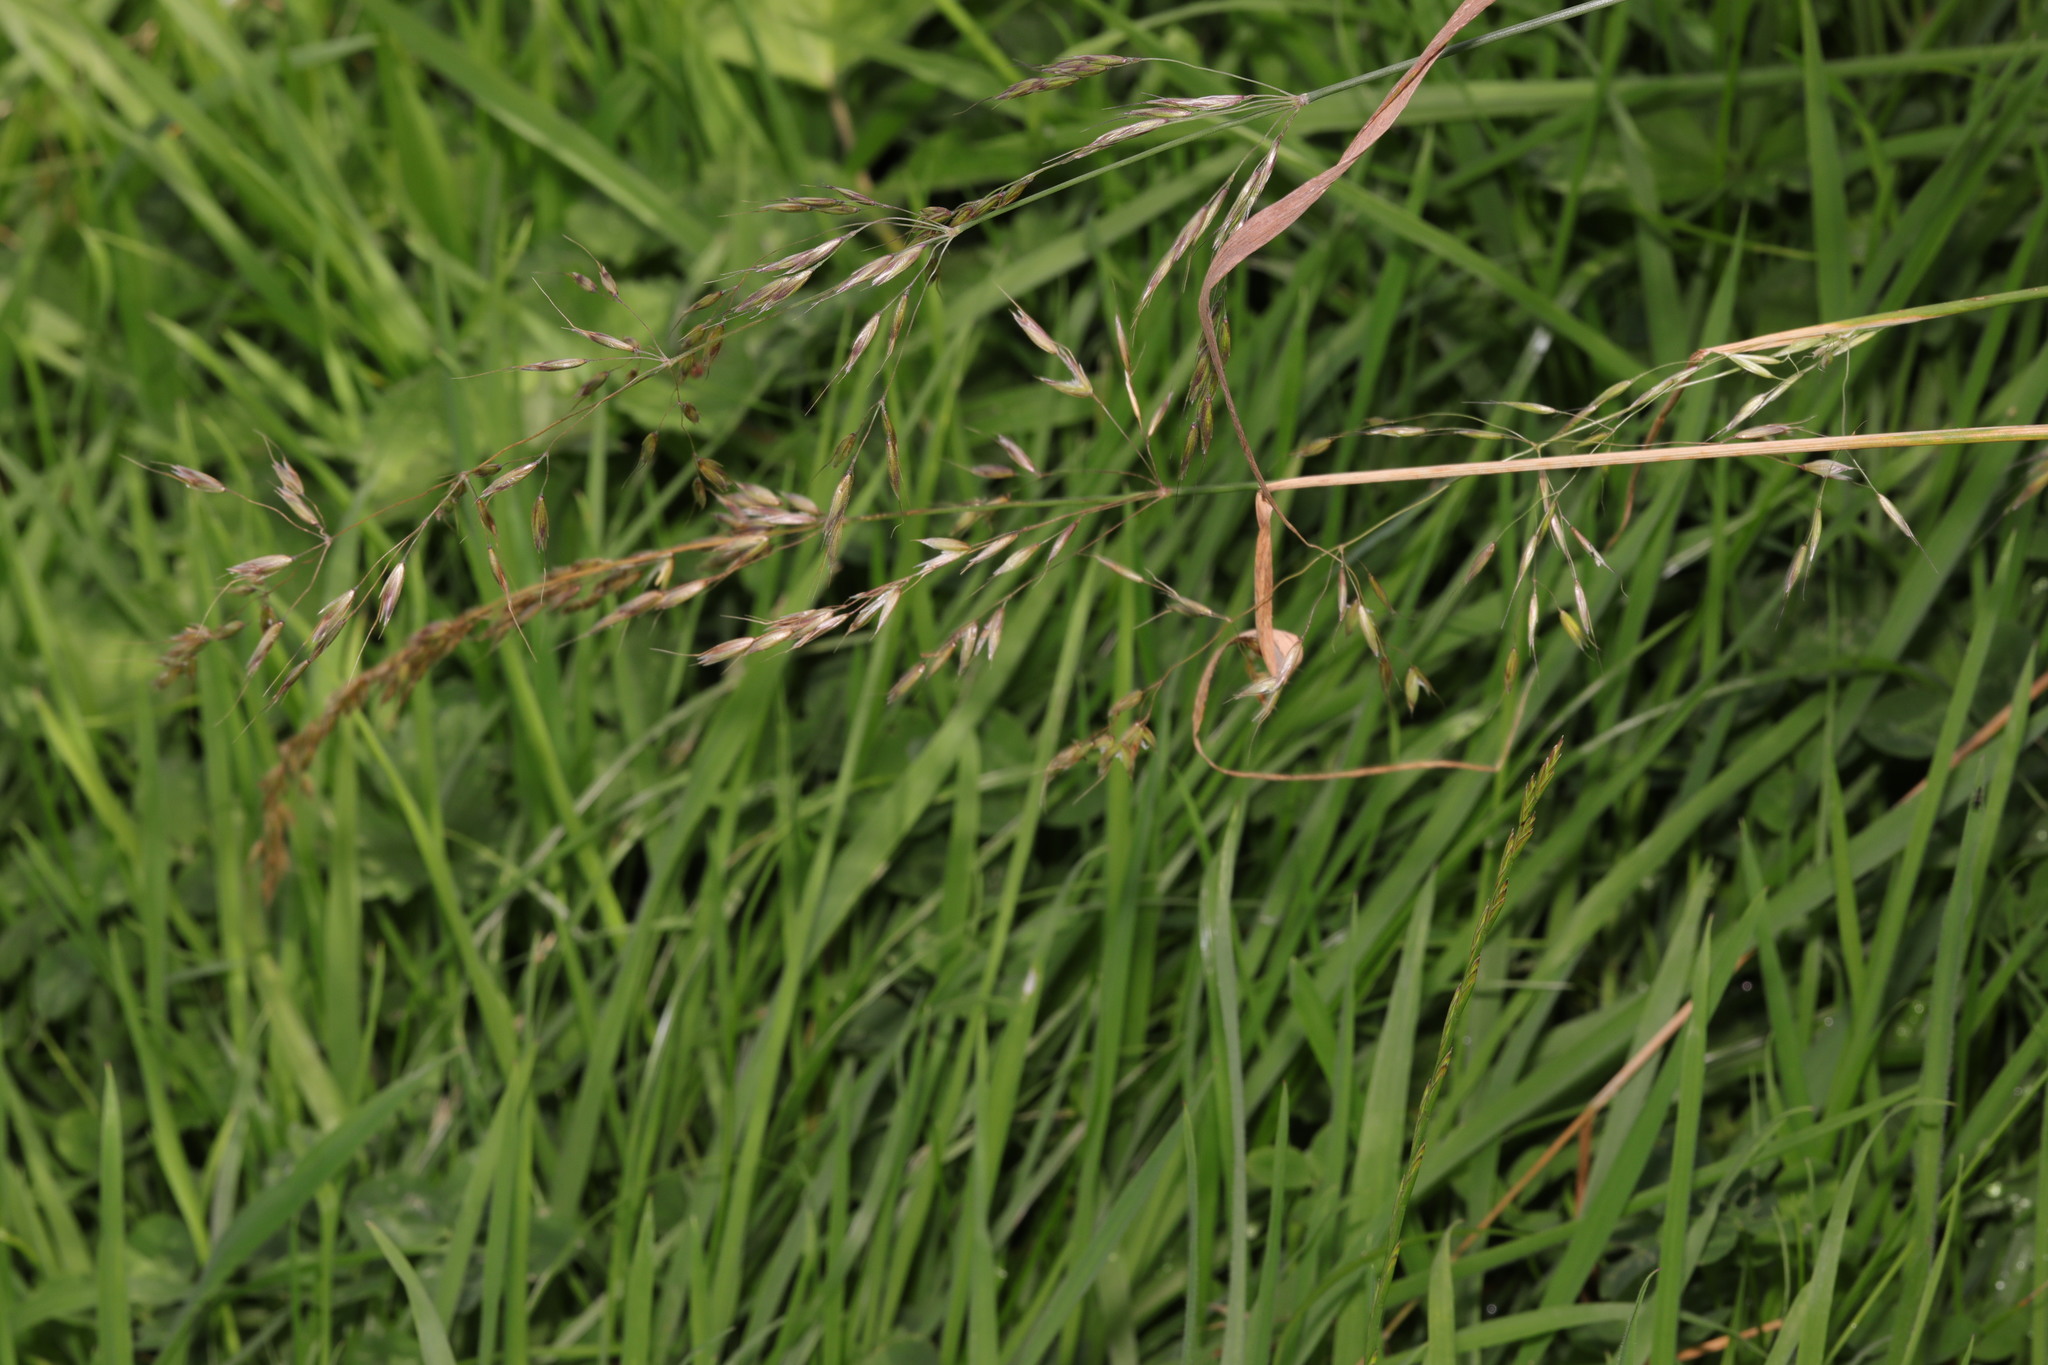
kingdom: Plantae
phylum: Tracheophyta
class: Liliopsida
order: Poales
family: Poaceae
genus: Arrhenatherum
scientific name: Arrhenatherum elatius
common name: Tall oatgrass
